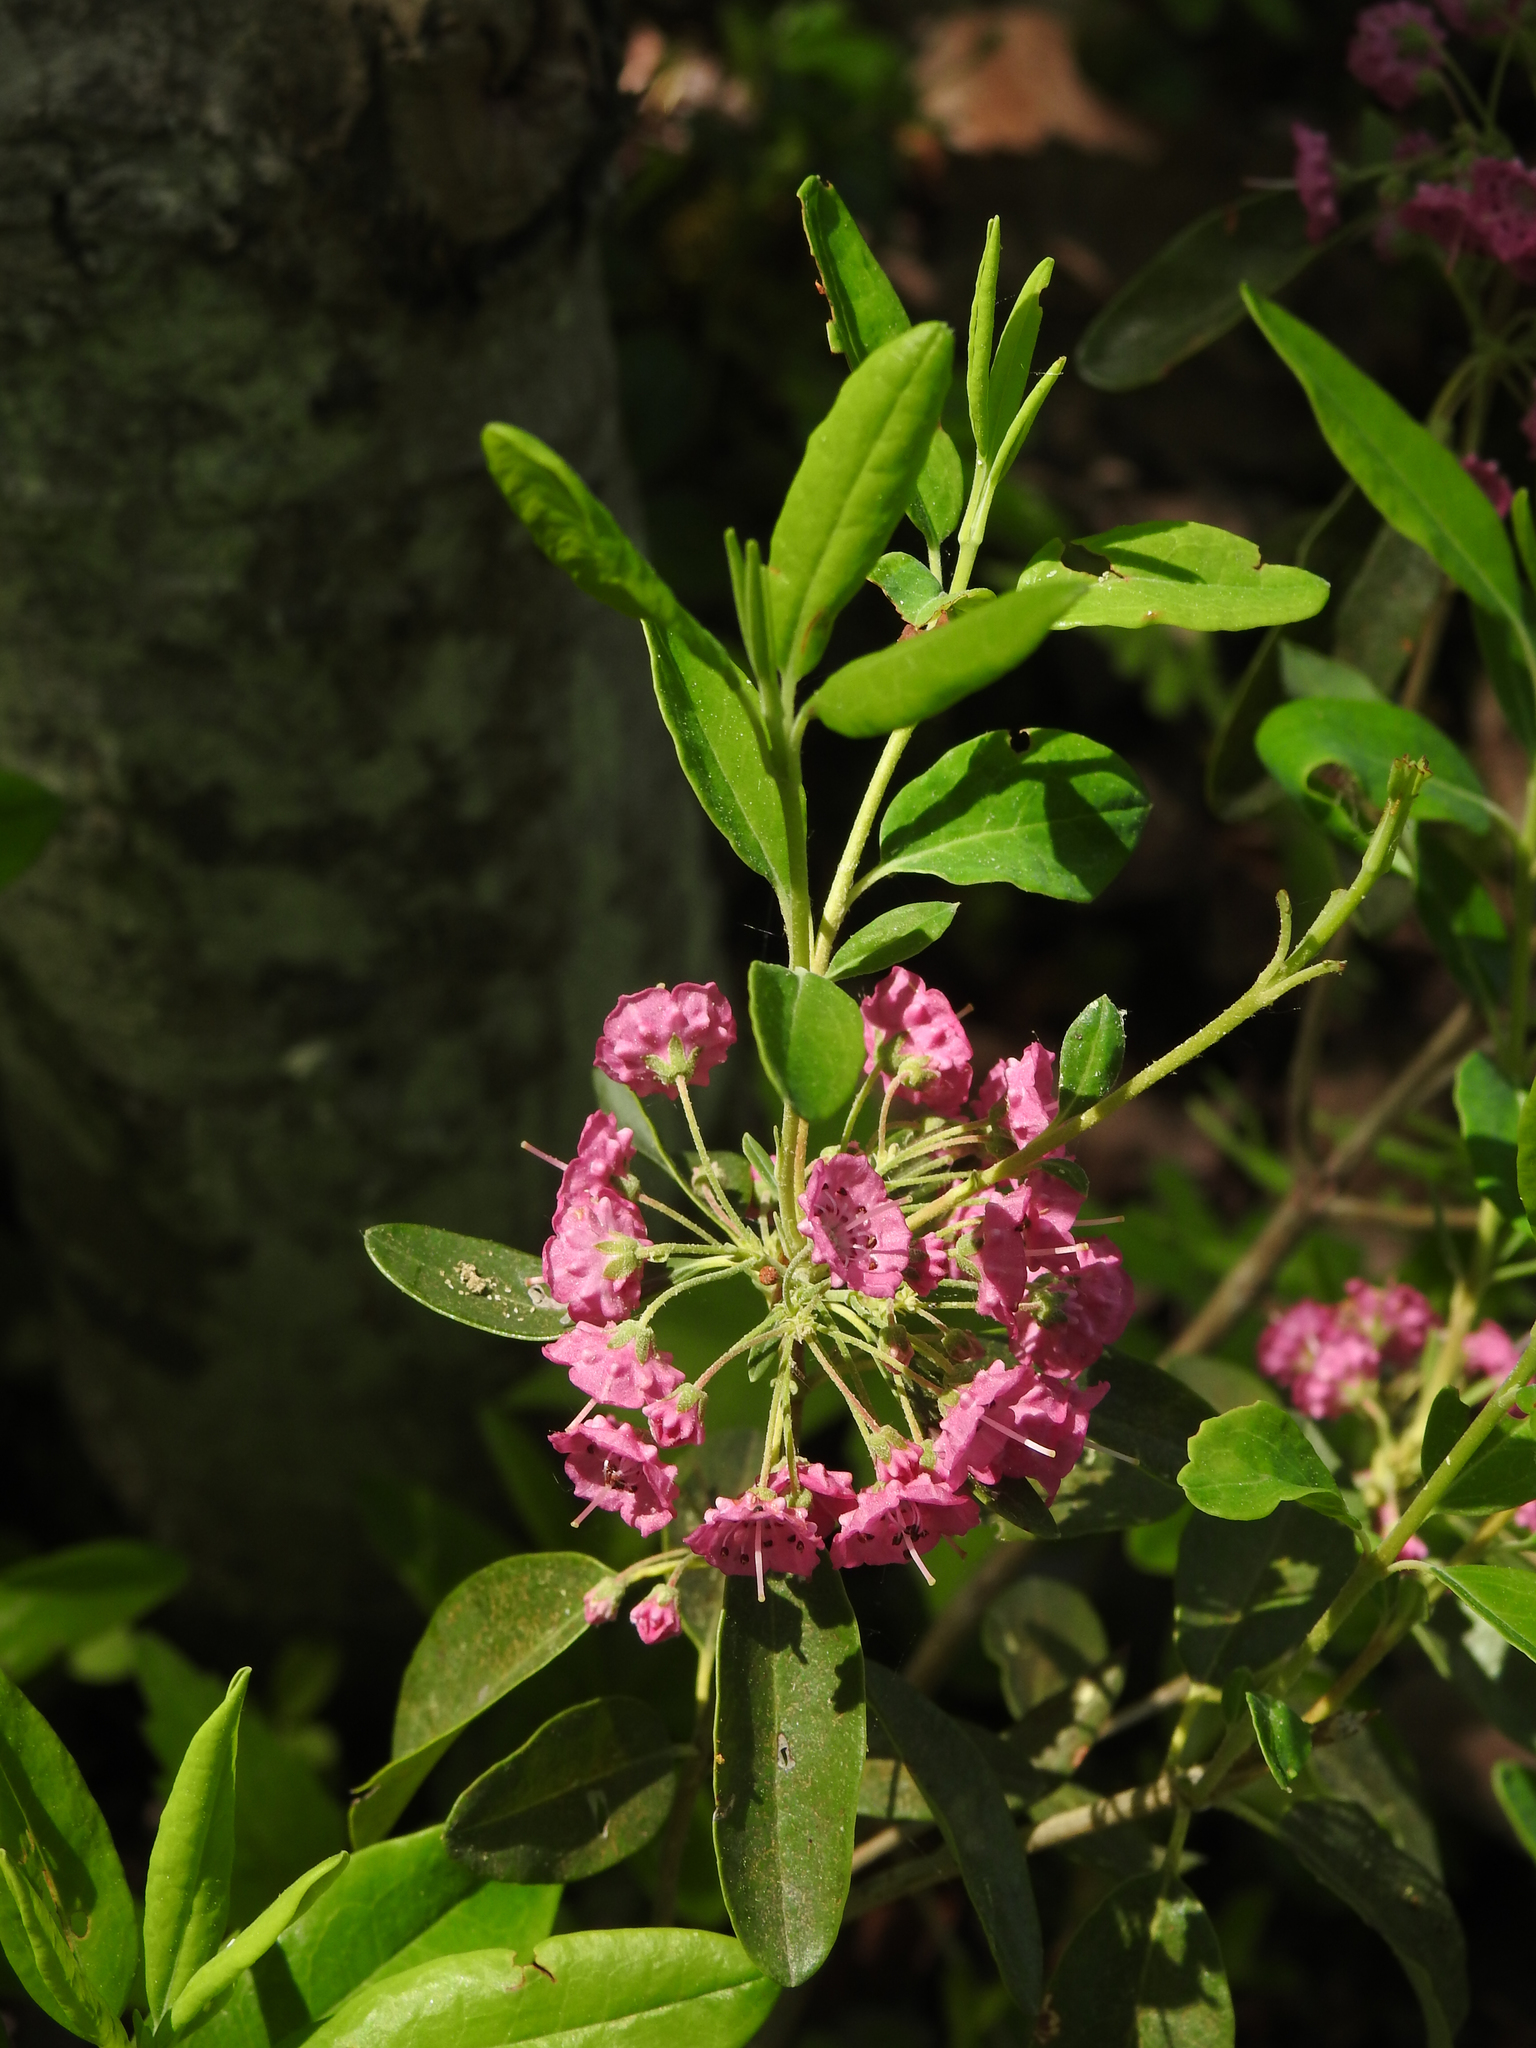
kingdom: Plantae
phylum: Tracheophyta
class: Magnoliopsida
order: Ericales
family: Ericaceae
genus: Kalmia
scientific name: Kalmia angustifolia
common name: Sheep-laurel
